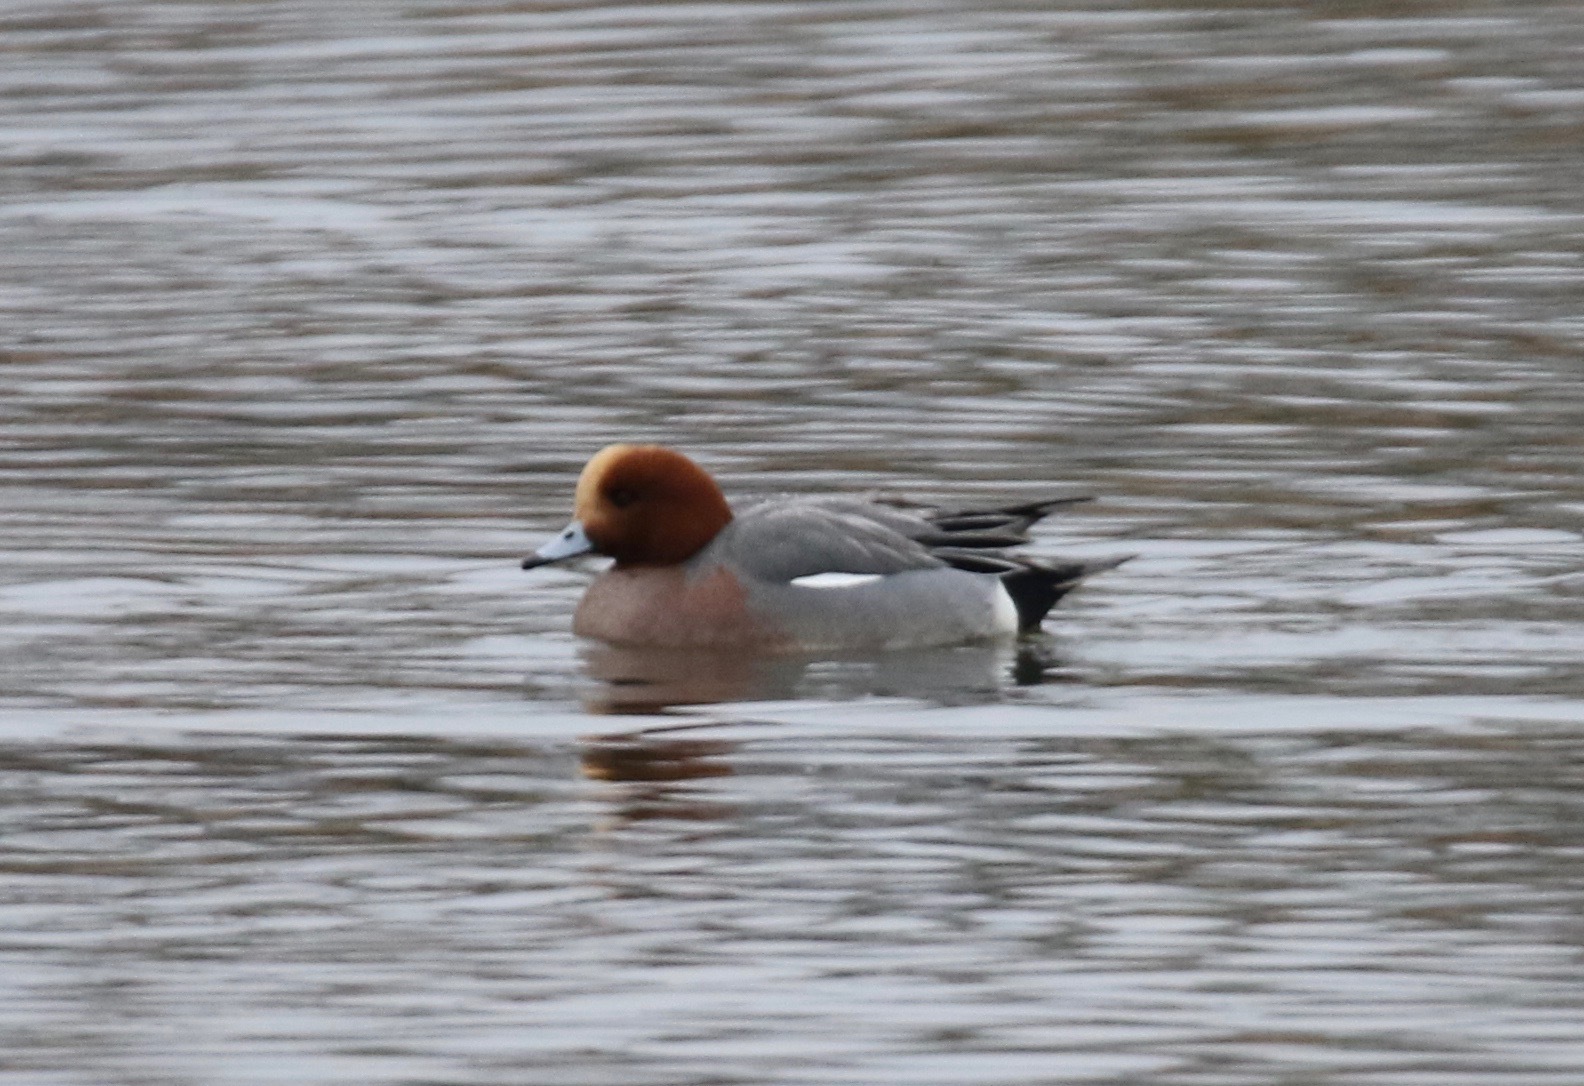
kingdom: Animalia
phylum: Chordata
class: Aves
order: Anseriformes
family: Anatidae
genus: Mareca
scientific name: Mareca penelope
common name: Eurasian wigeon
